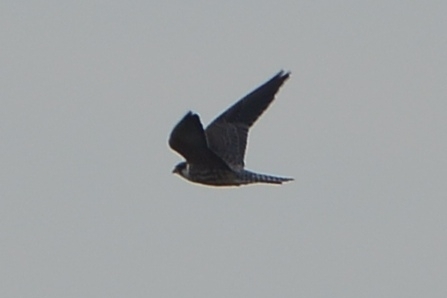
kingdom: Animalia
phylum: Chordata
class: Aves
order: Falconiformes
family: Falconidae
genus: Falco
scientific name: Falco subbuteo
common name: Eurasian hobby
